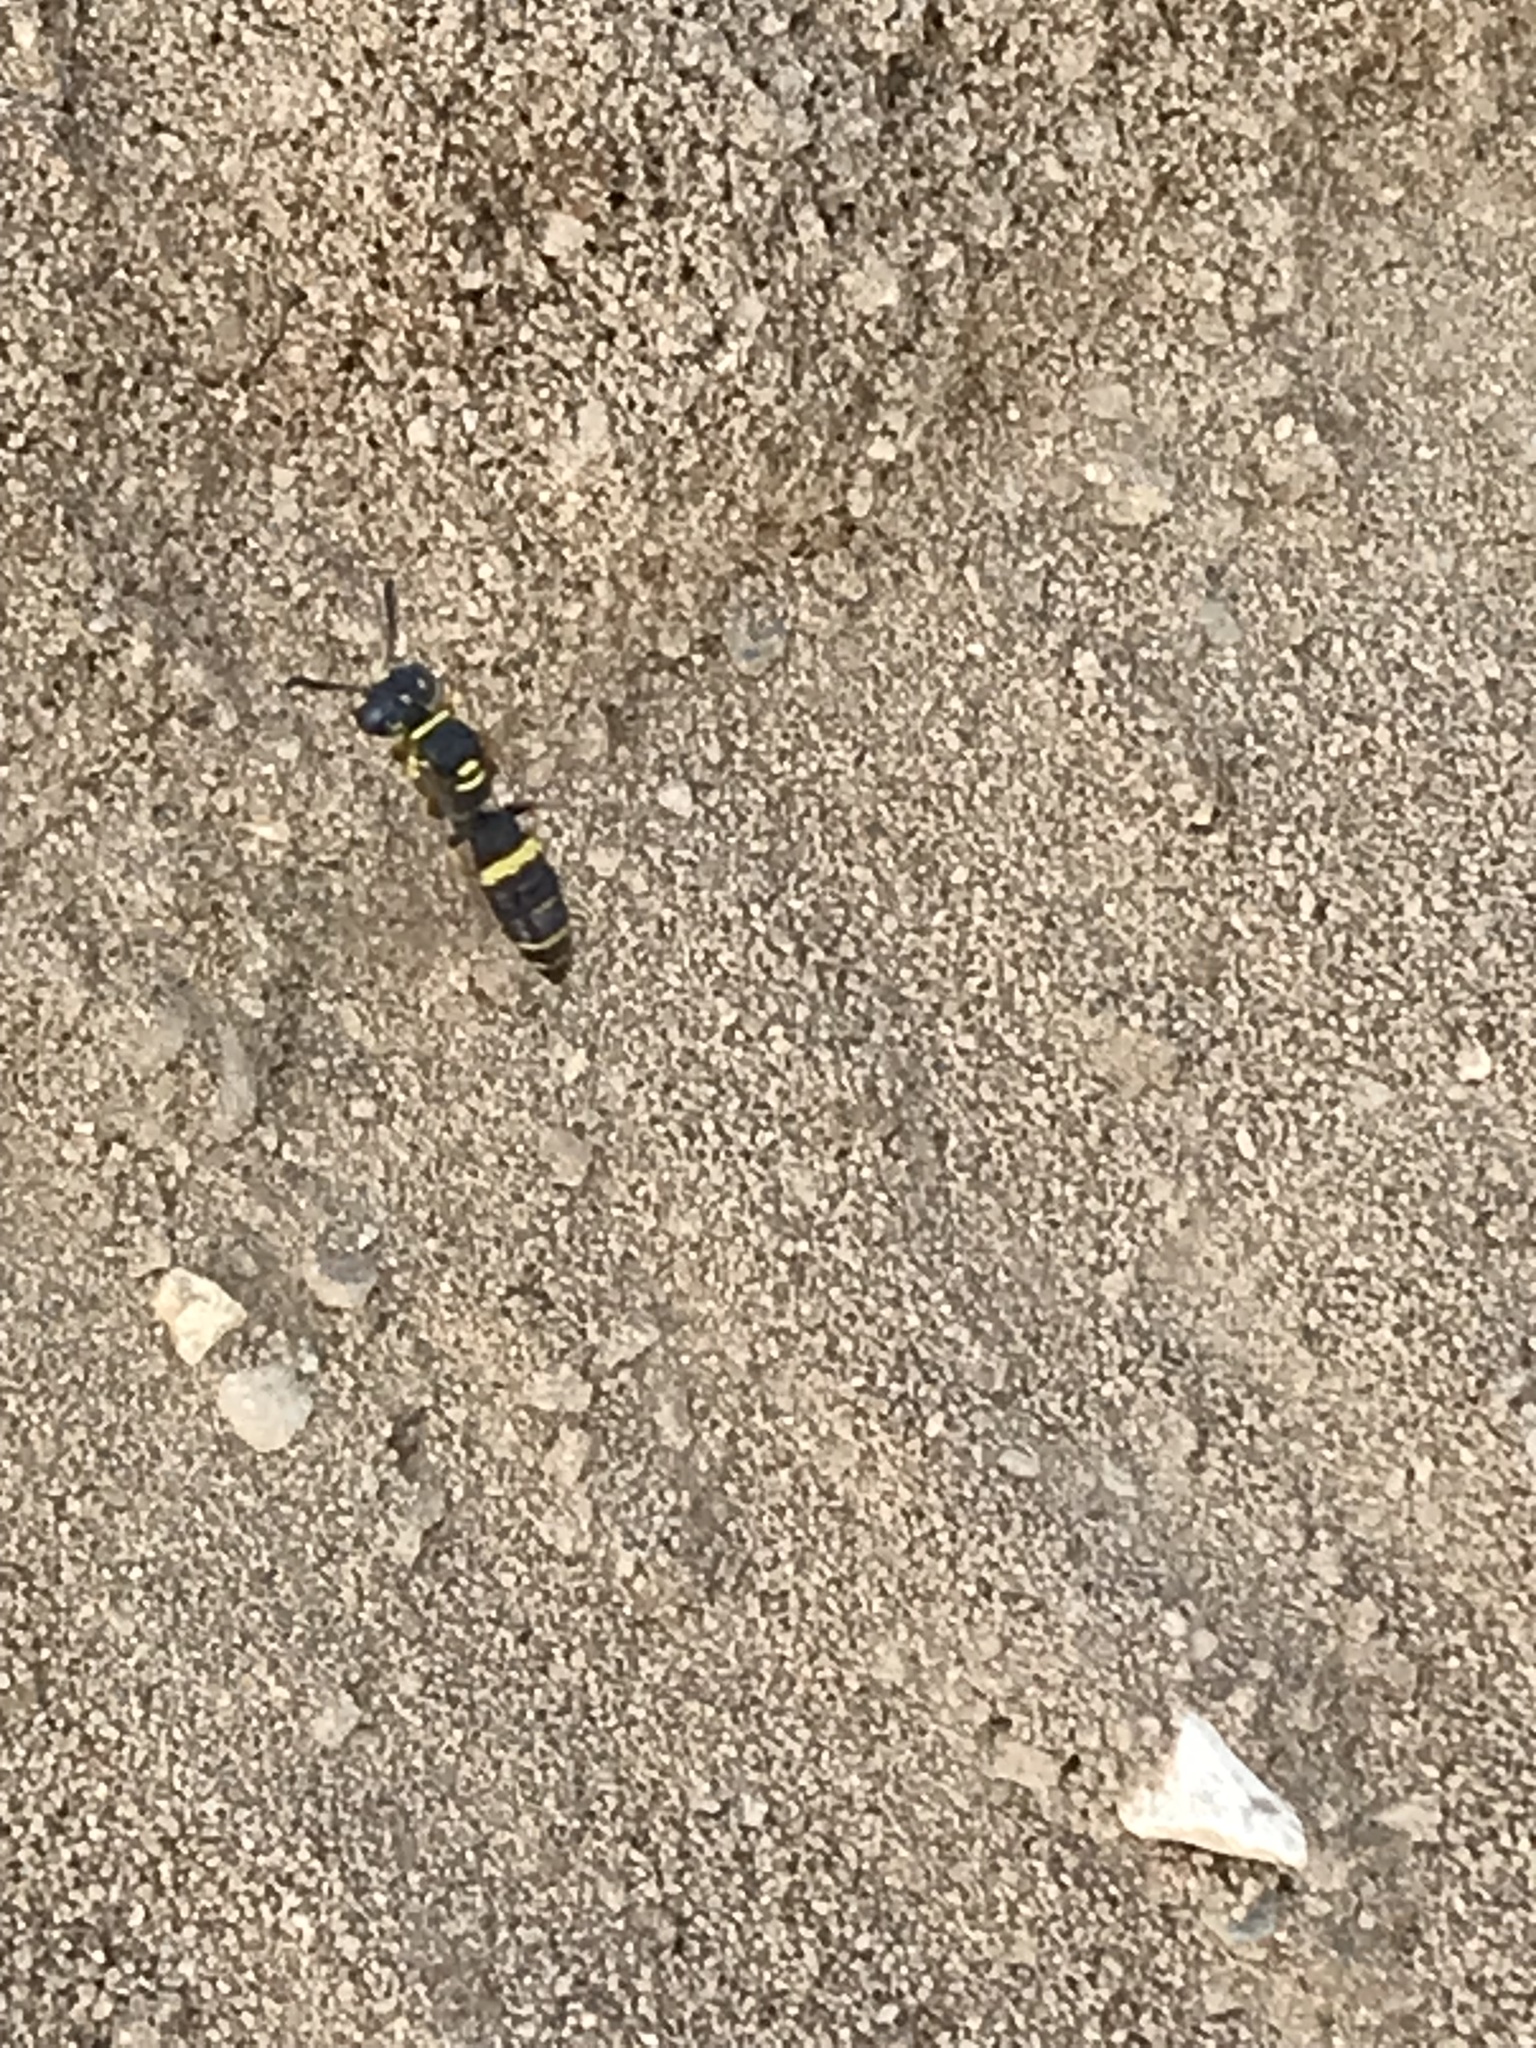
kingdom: Animalia
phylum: Arthropoda
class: Insecta
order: Hymenoptera
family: Crabronidae
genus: Philanthus
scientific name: Philanthus gibbosus
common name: Humped beewolf
